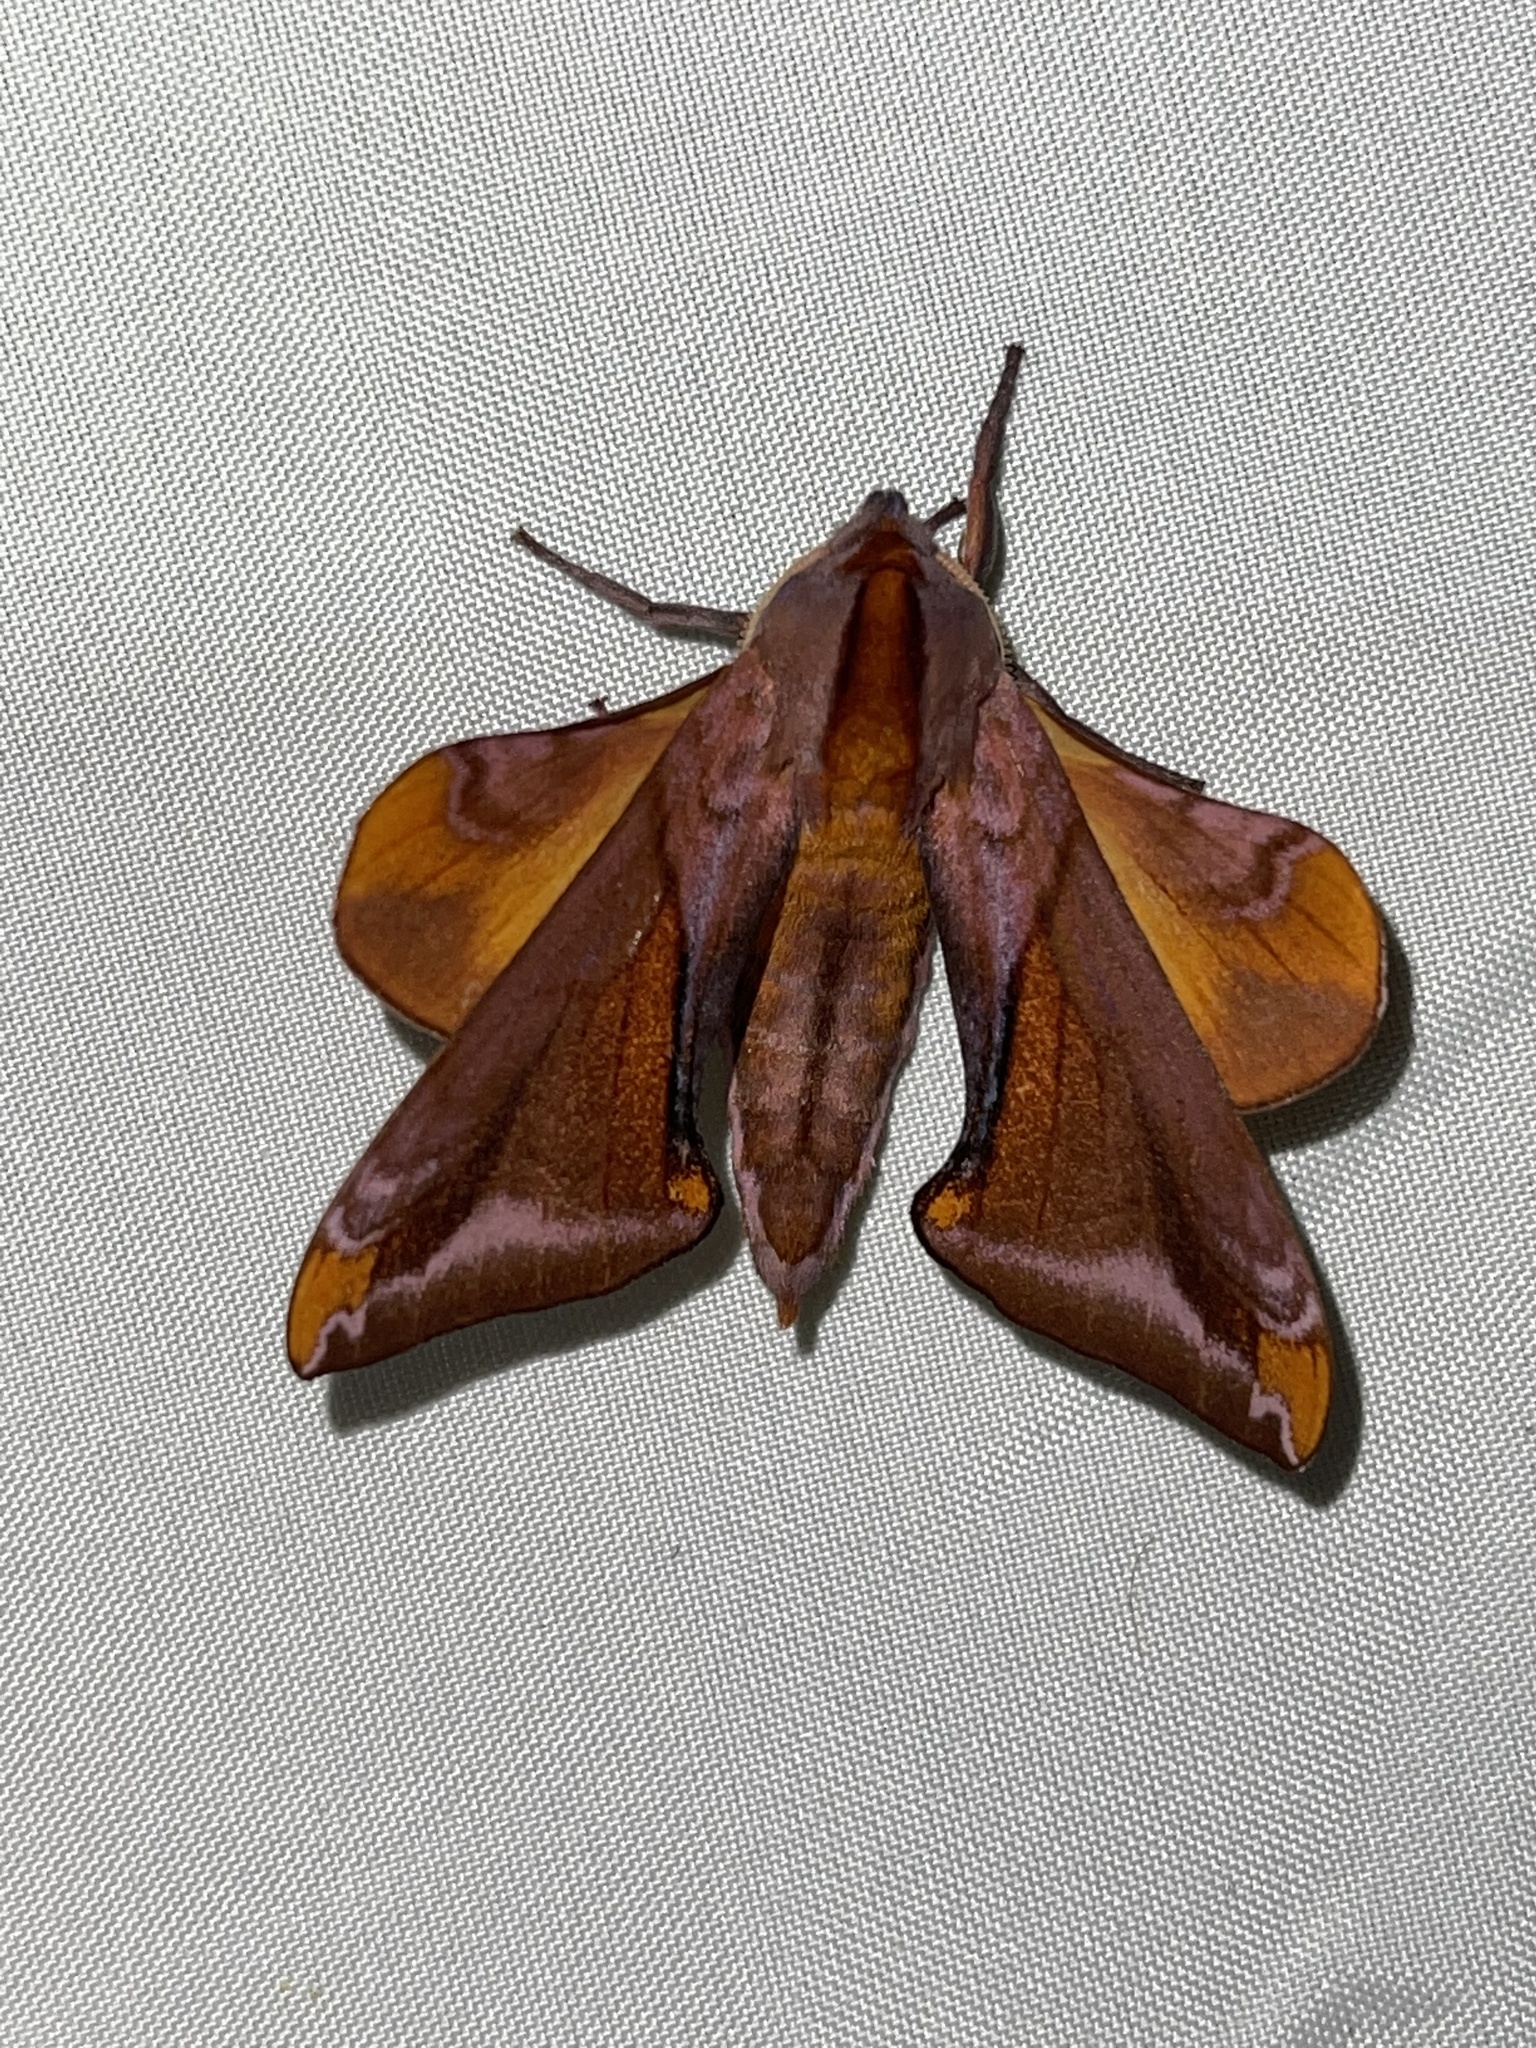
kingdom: Animalia
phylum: Arthropoda
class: Insecta
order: Lepidoptera
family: Sphingidae
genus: Paonias
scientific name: Paonias astylus
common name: Huckleberry sphinx
